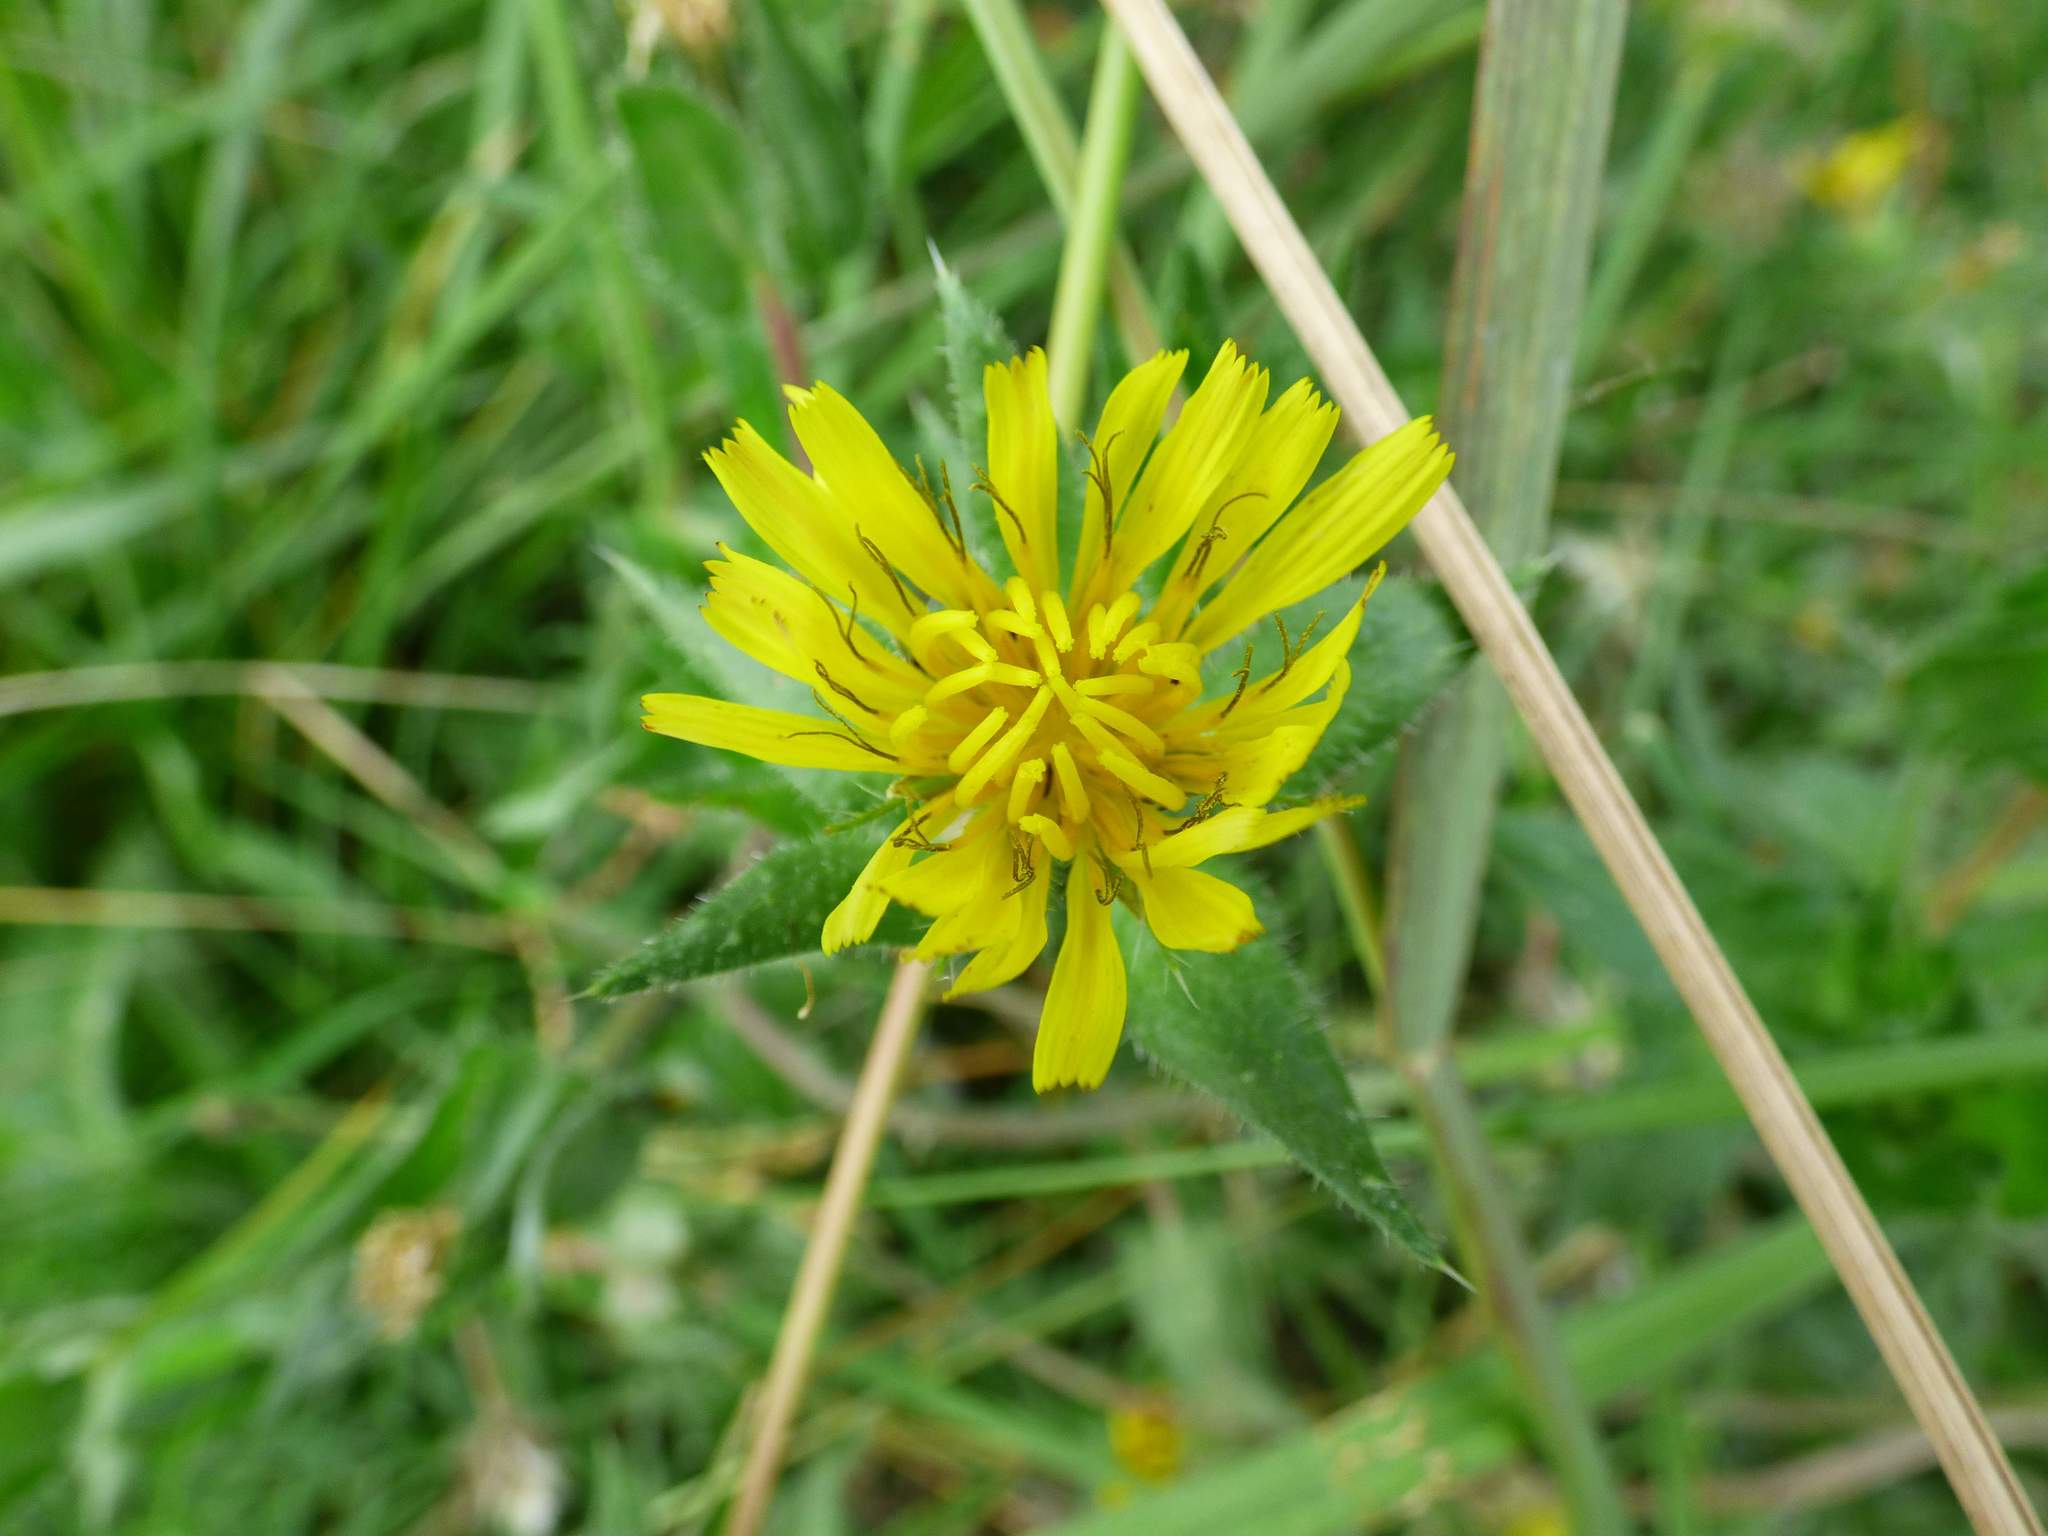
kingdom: Plantae
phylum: Tracheophyta
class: Magnoliopsida
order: Asterales
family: Asteraceae
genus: Helminthotheca
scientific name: Helminthotheca echioides
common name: Ox-tongue
